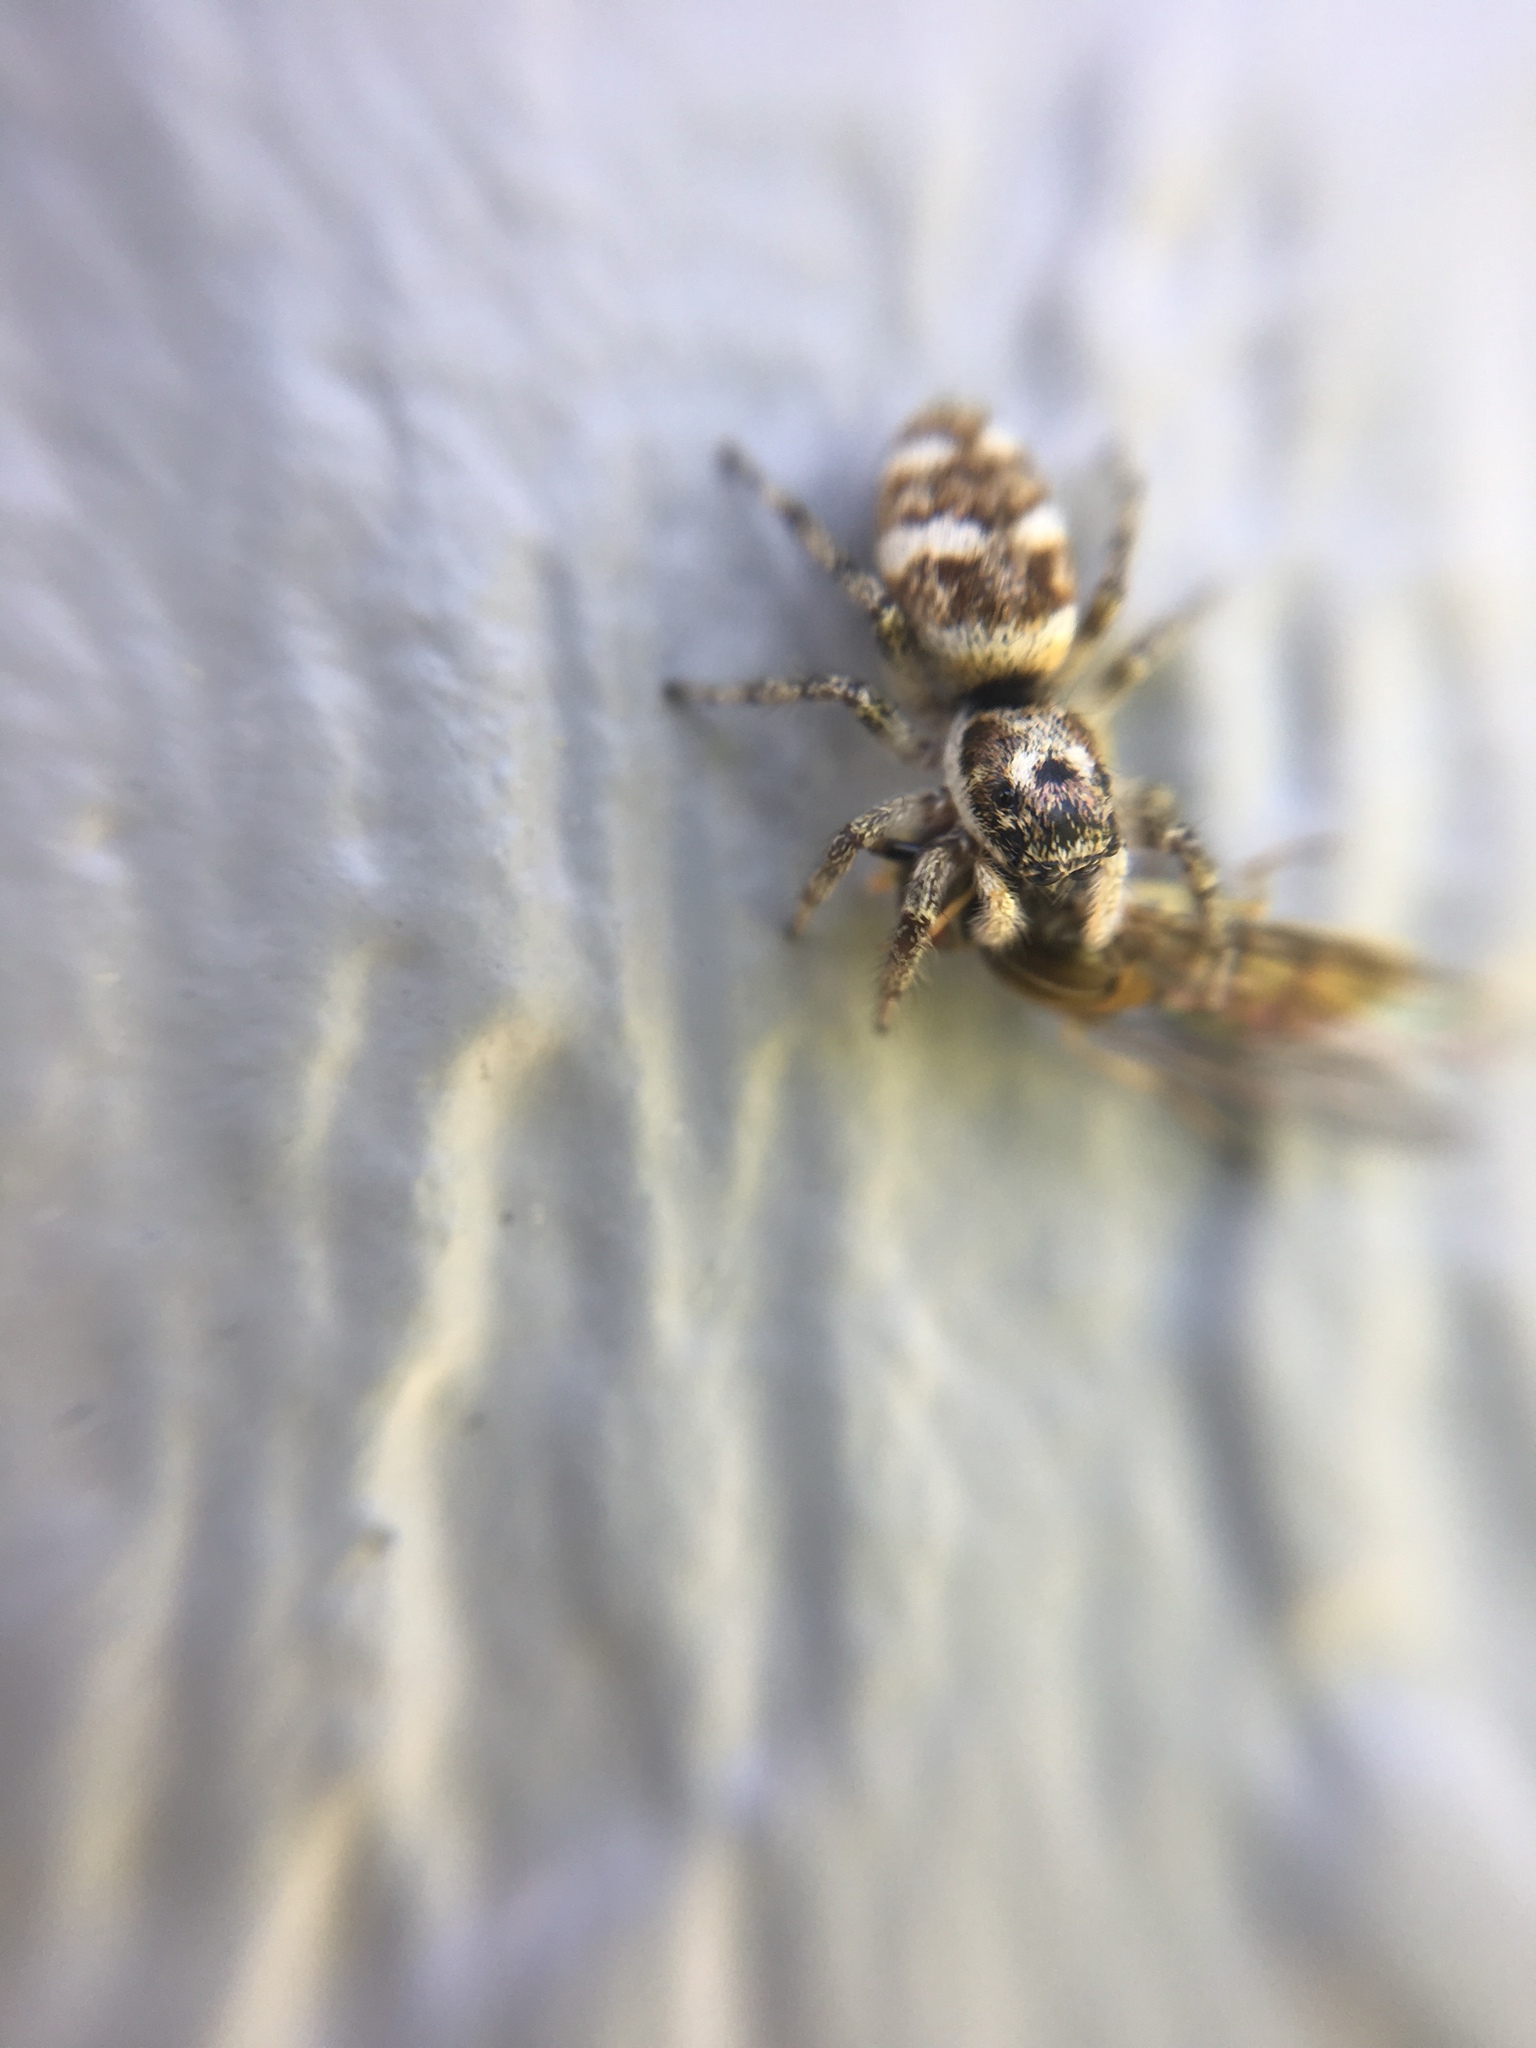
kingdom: Animalia
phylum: Arthropoda
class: Arachnida
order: Araneae
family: Salticidae
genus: Salticus
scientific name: Salticus scenicus
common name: Zebra jumper
